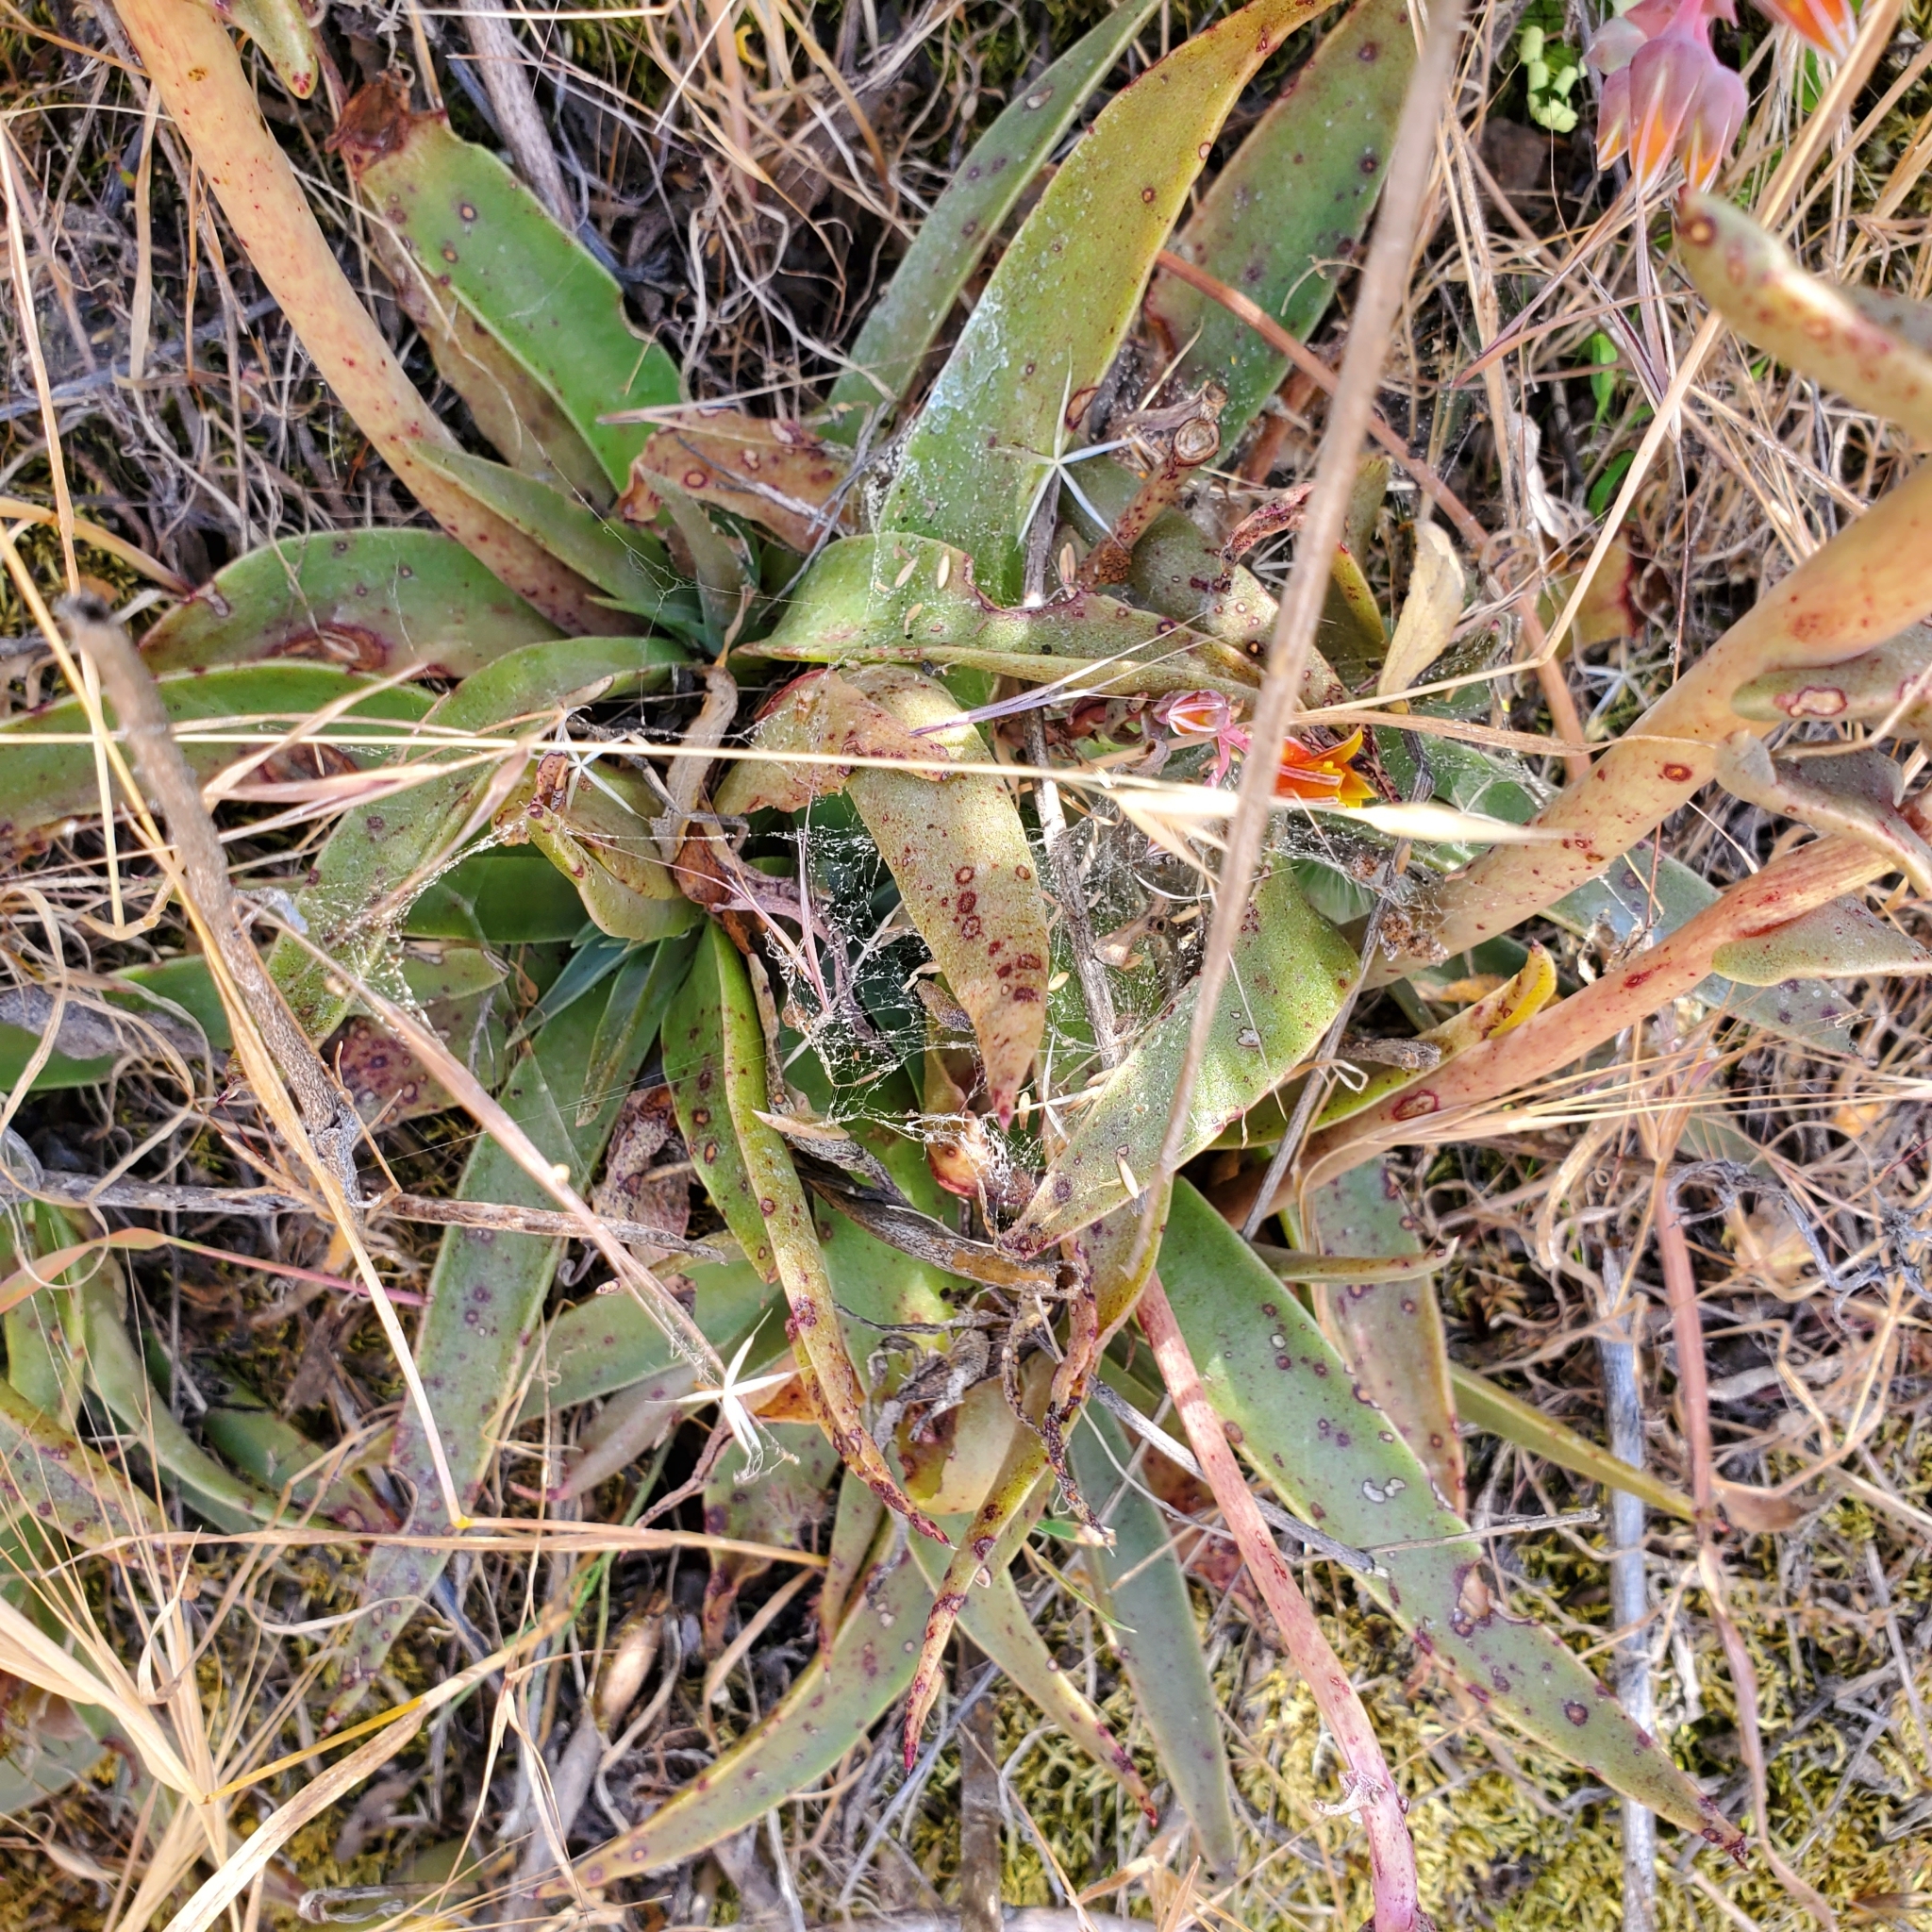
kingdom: Plantae
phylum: Tracheophyta
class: Magnoliopsida
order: Saxifragales
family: Crassulaceae
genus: Dudleya
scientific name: Dudleya lanceolata
